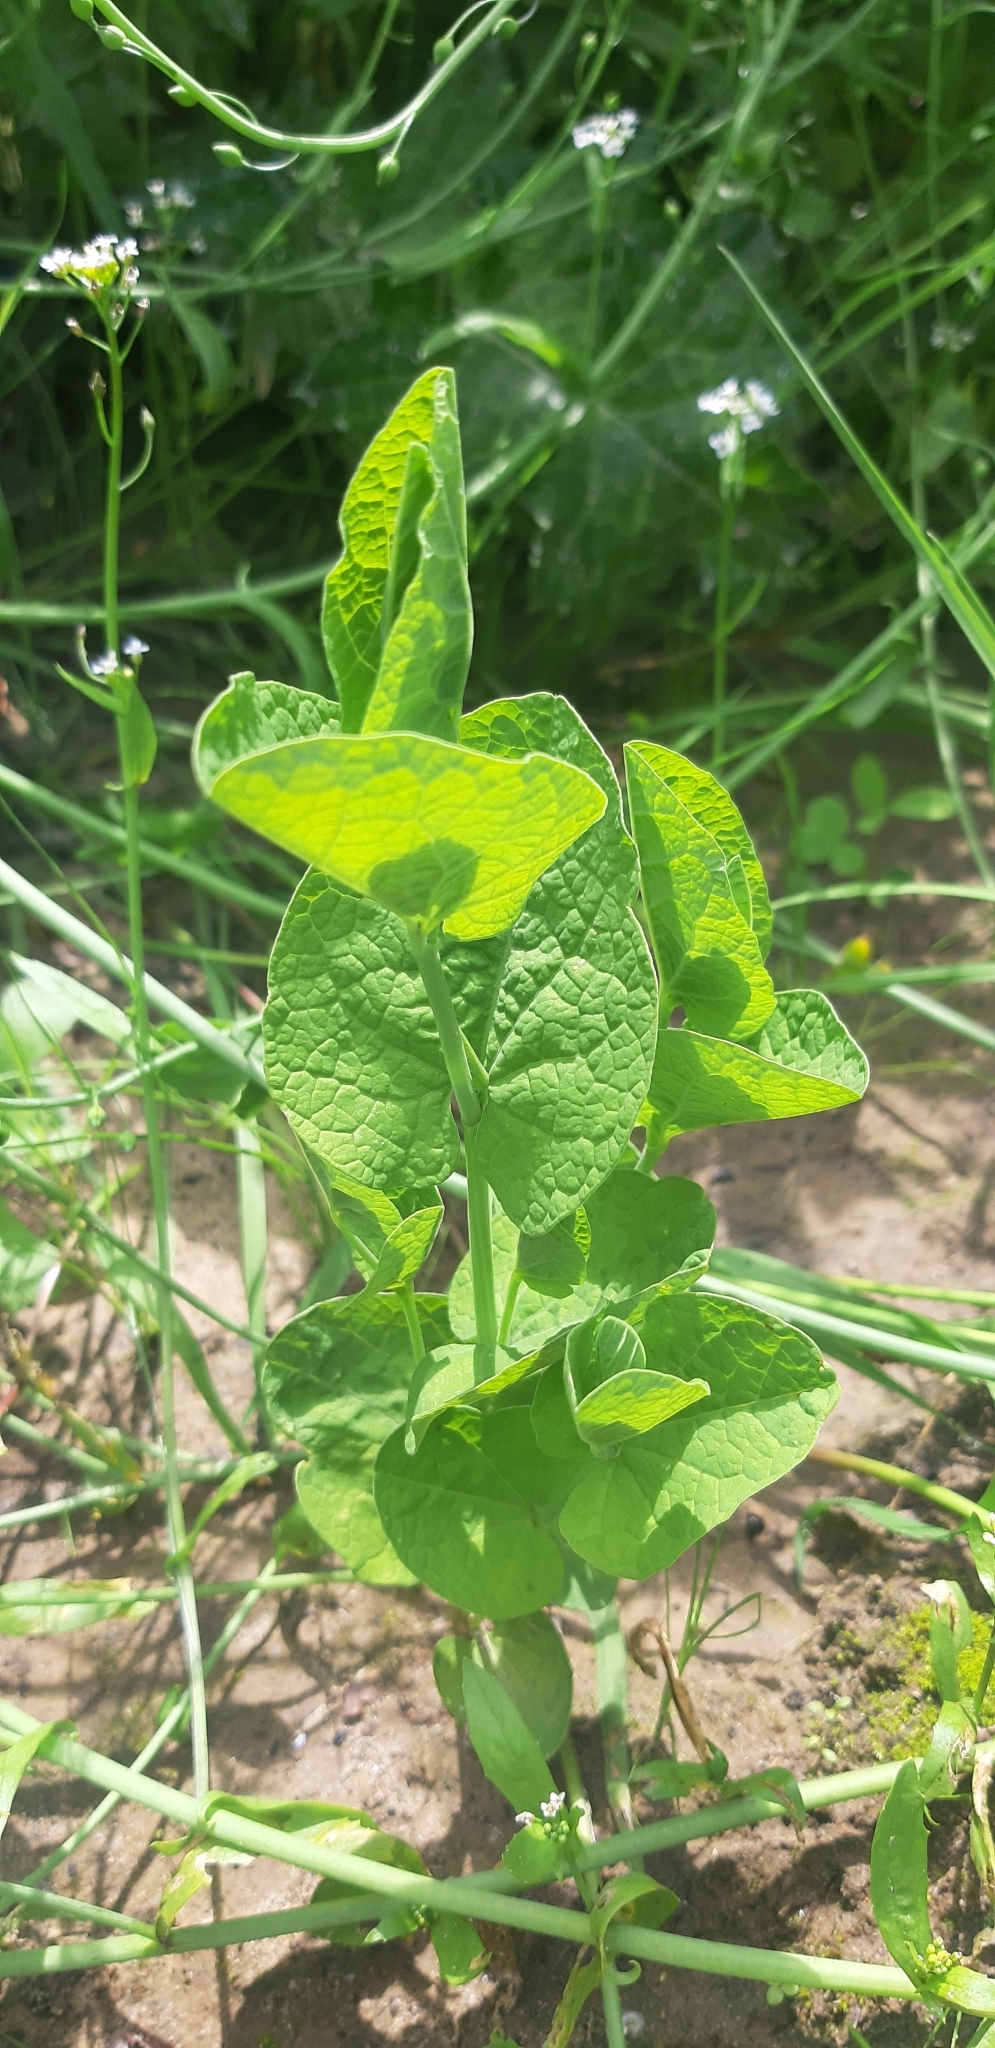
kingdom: Plantae
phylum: Tracheophyta
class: Magnoliopsida
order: Piperales
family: Aristolochiaceae
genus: Aristolochia
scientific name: Aristolochia rotunda
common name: Smearwort
